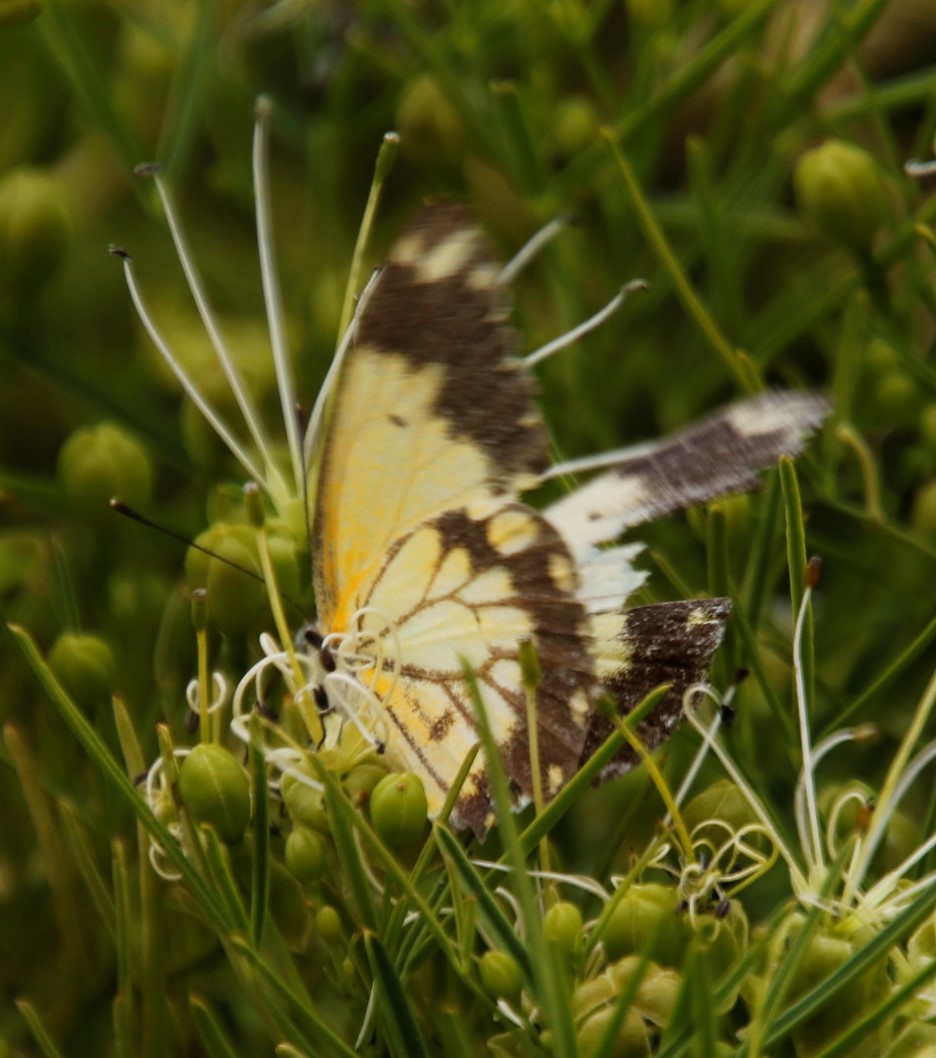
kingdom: Animalia
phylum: Arthropoda
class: Insecta
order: Lepidoptera
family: Pieridae
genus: Belenois
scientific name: Belenois creona
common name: African caper white
